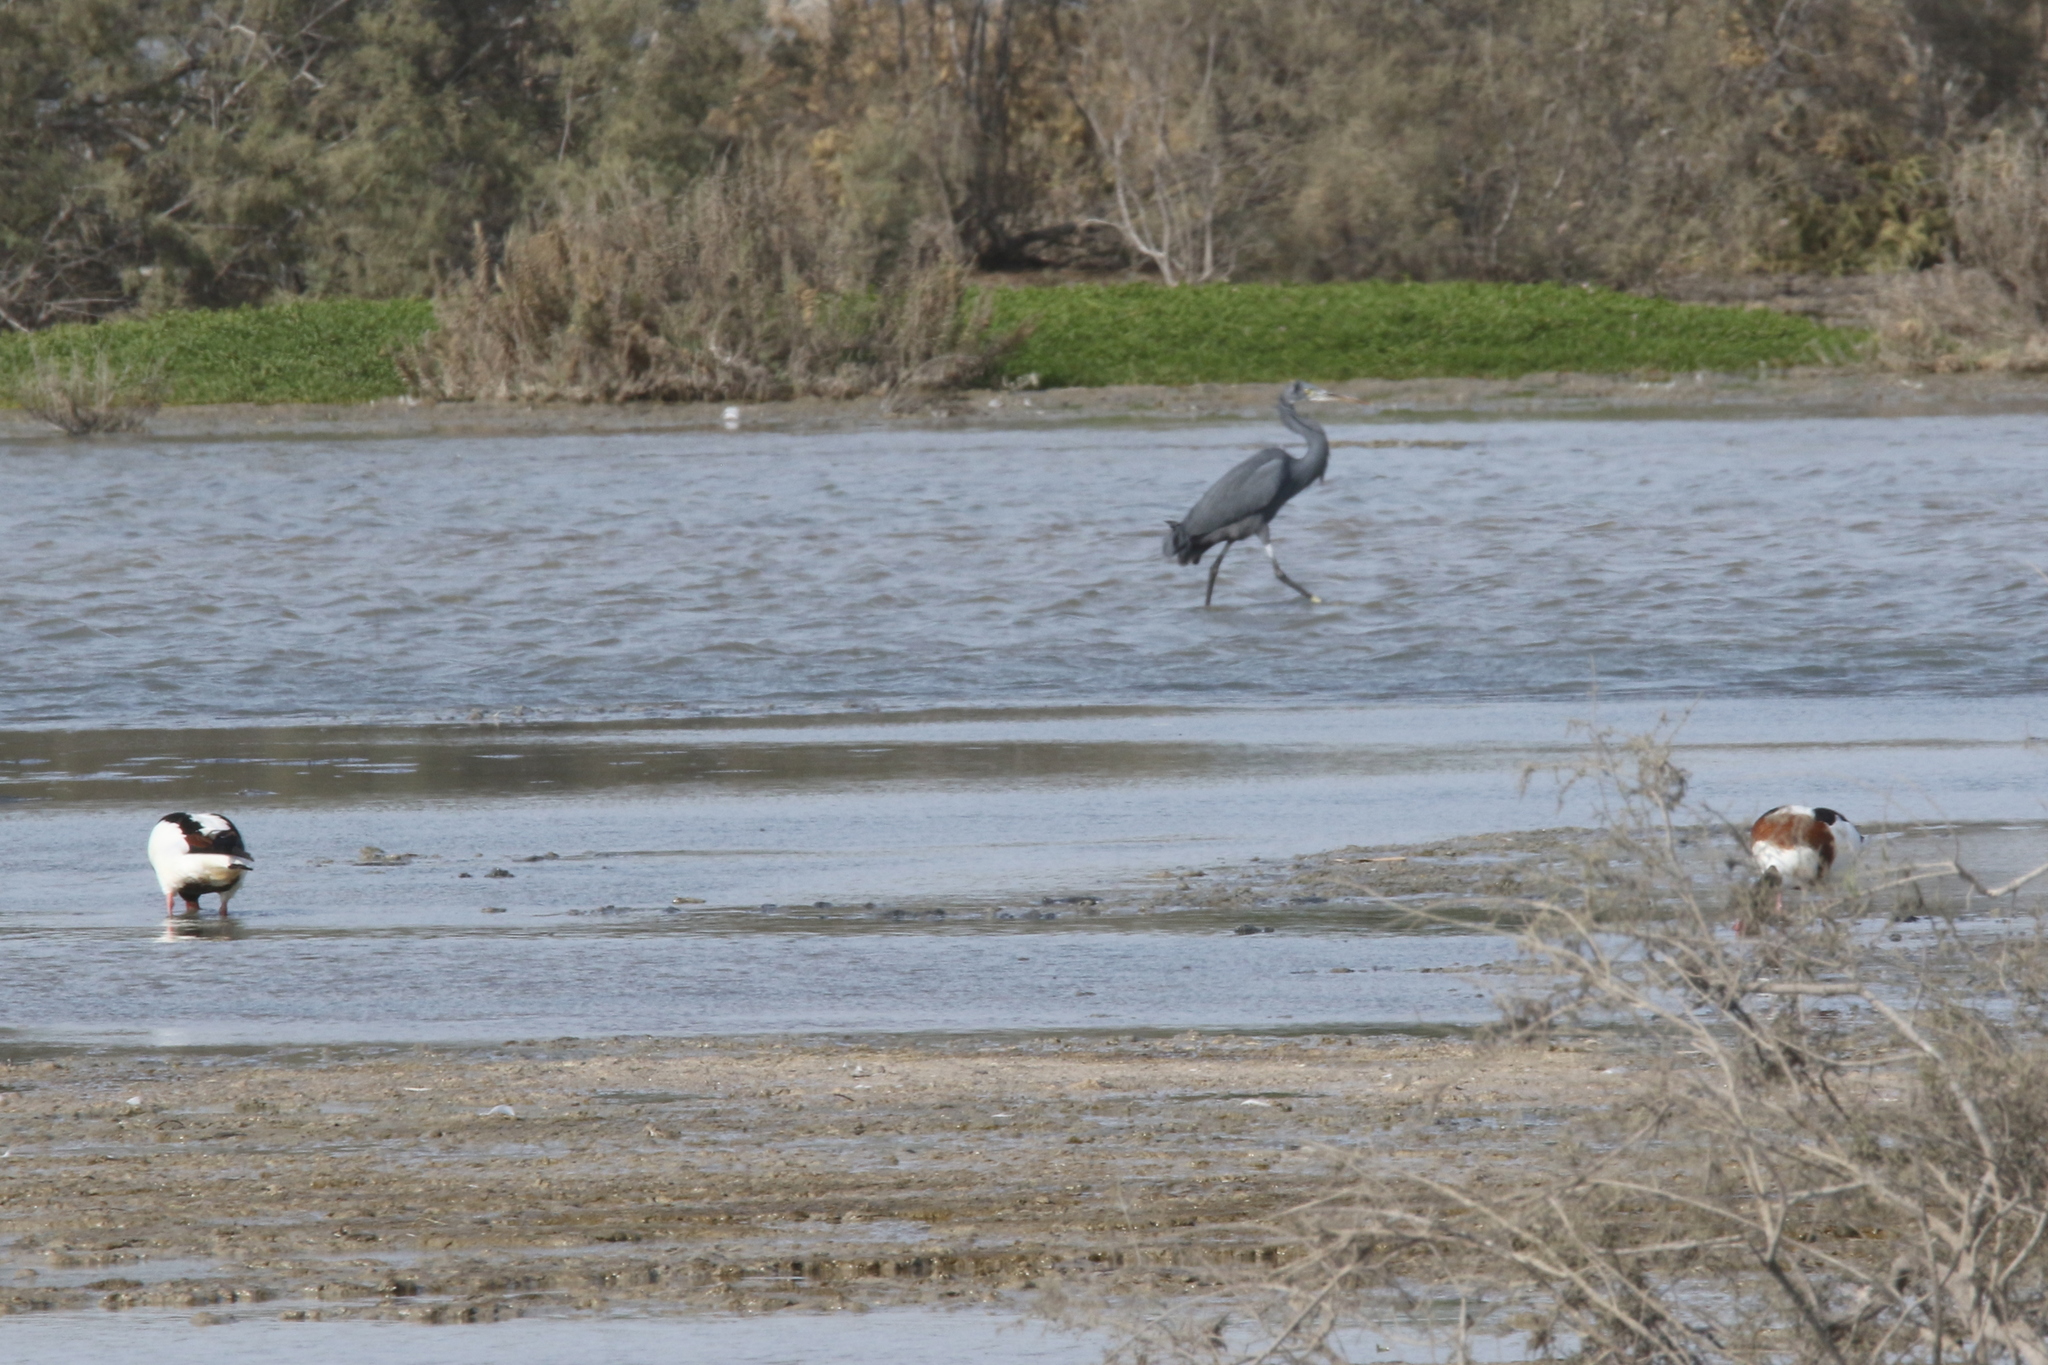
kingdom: Animalia
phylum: Chordata
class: Aves
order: Anseriformes
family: Anatidae
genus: Tadorna
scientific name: Tadorna tadorna
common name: Common shelduck
